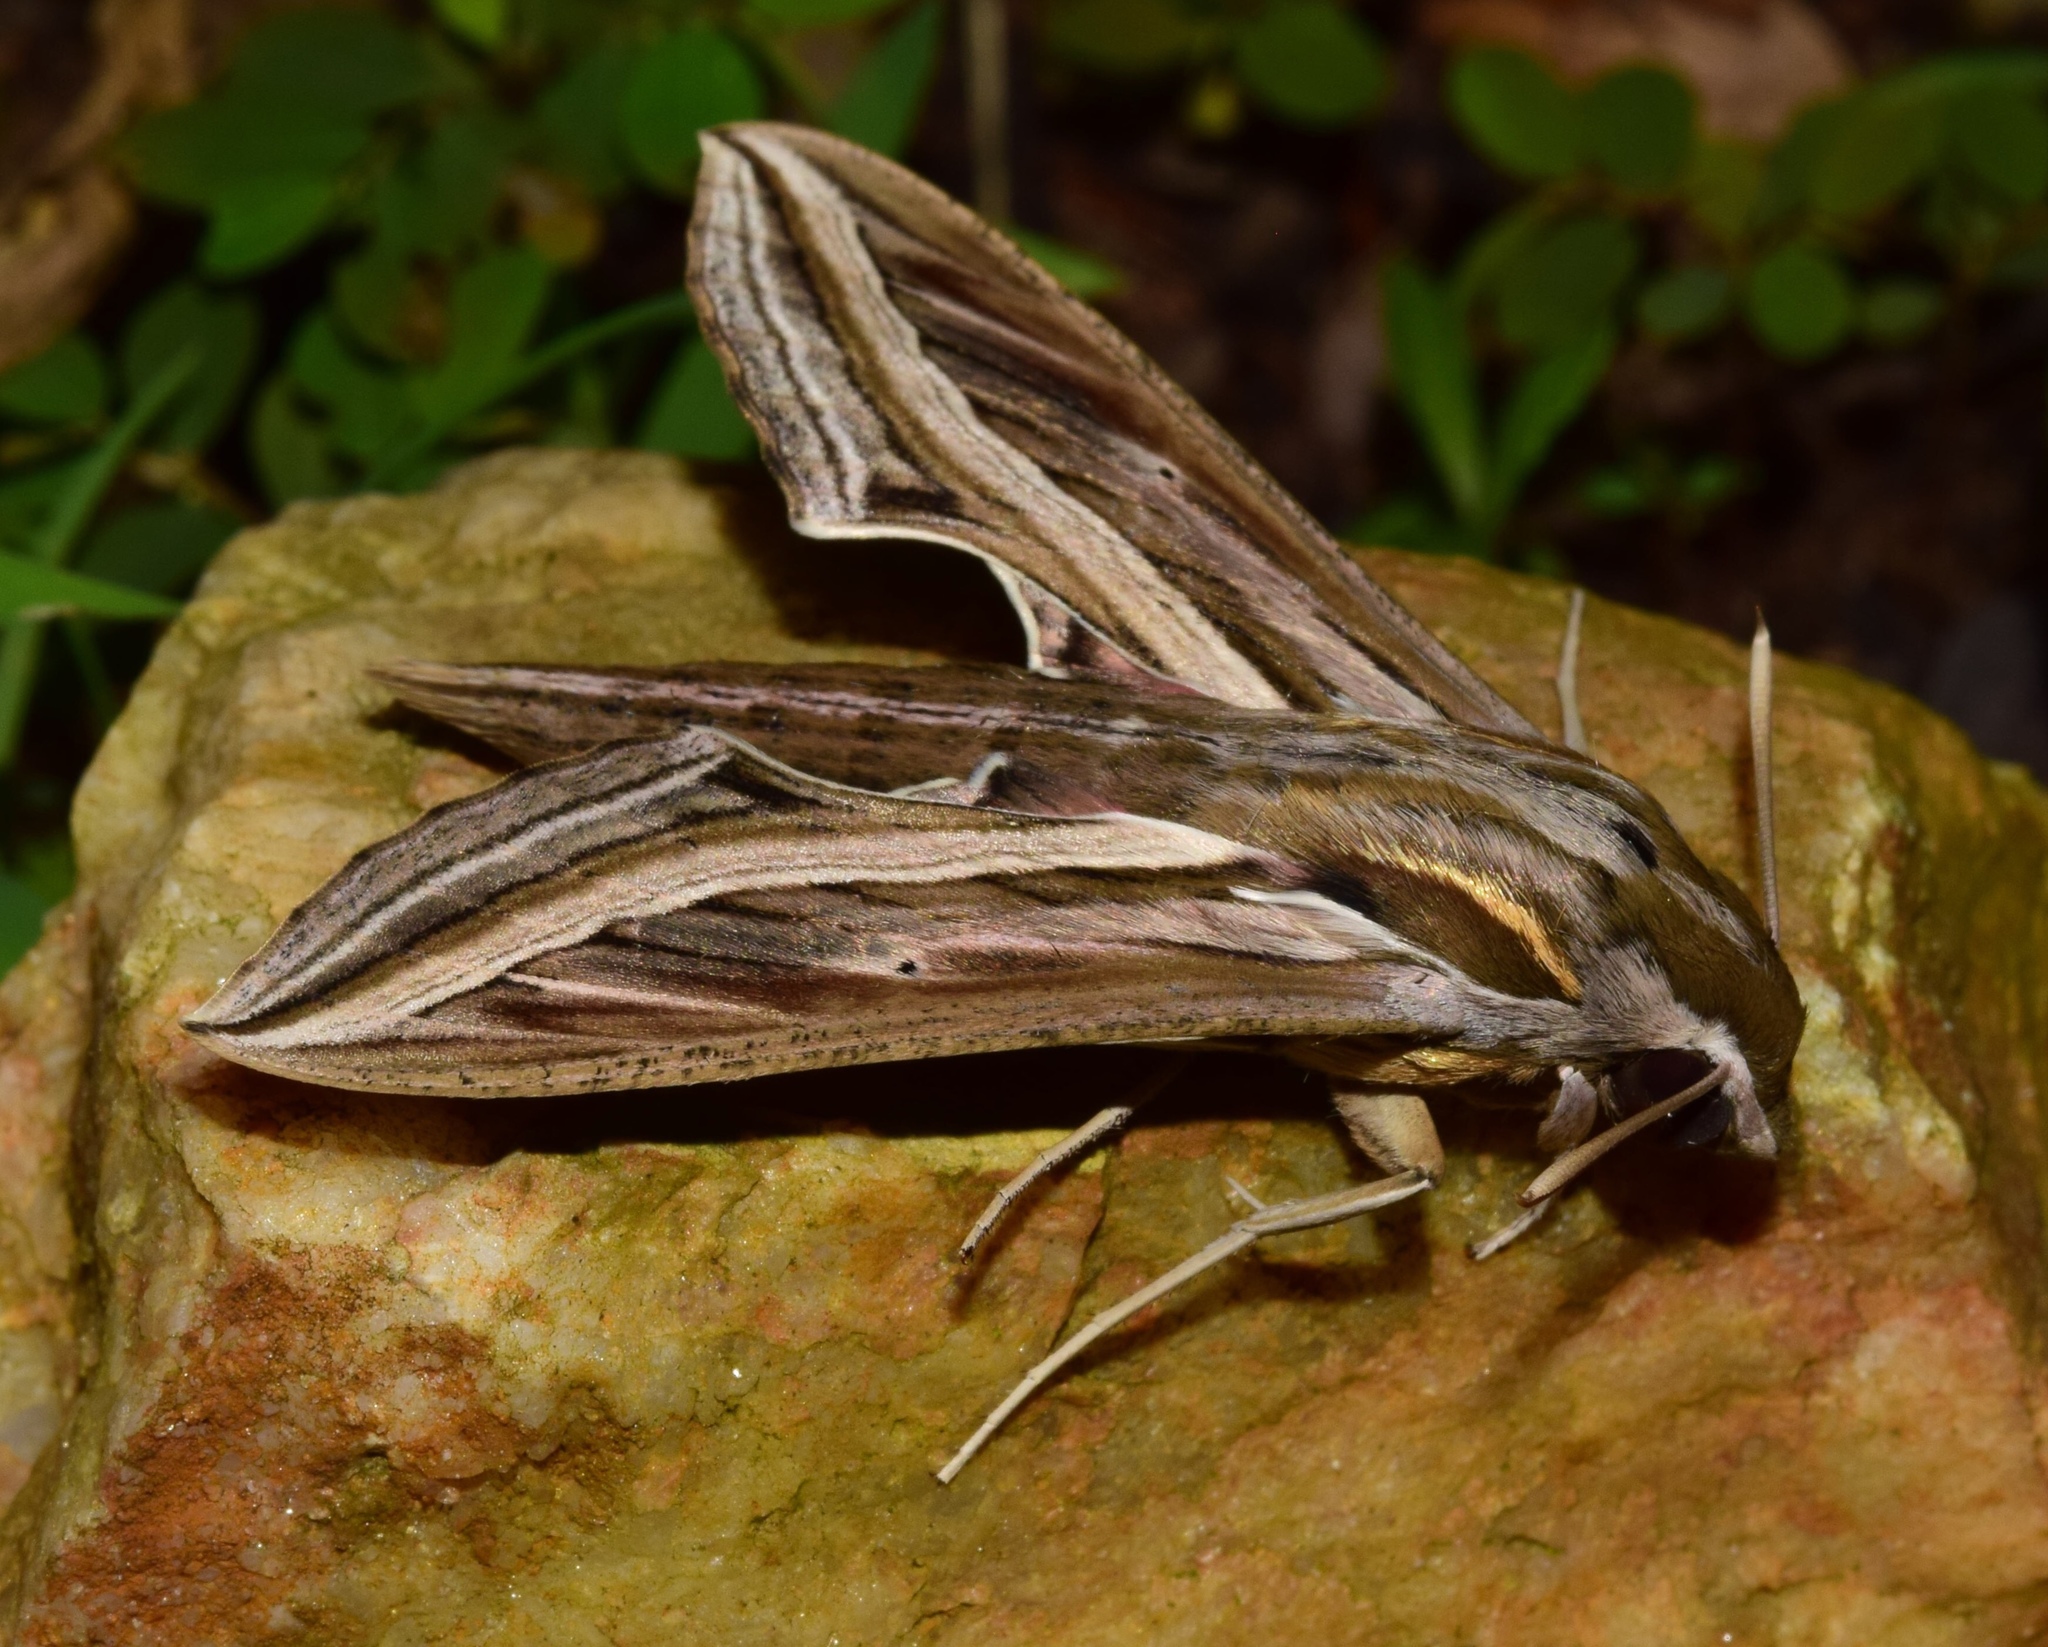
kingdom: Animalia
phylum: Arthropoda
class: Insecta
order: Lepidoptera
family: Sphingidae
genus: Hippotion
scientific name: Hippotion celerio
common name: Silver-striped hawk-moth
